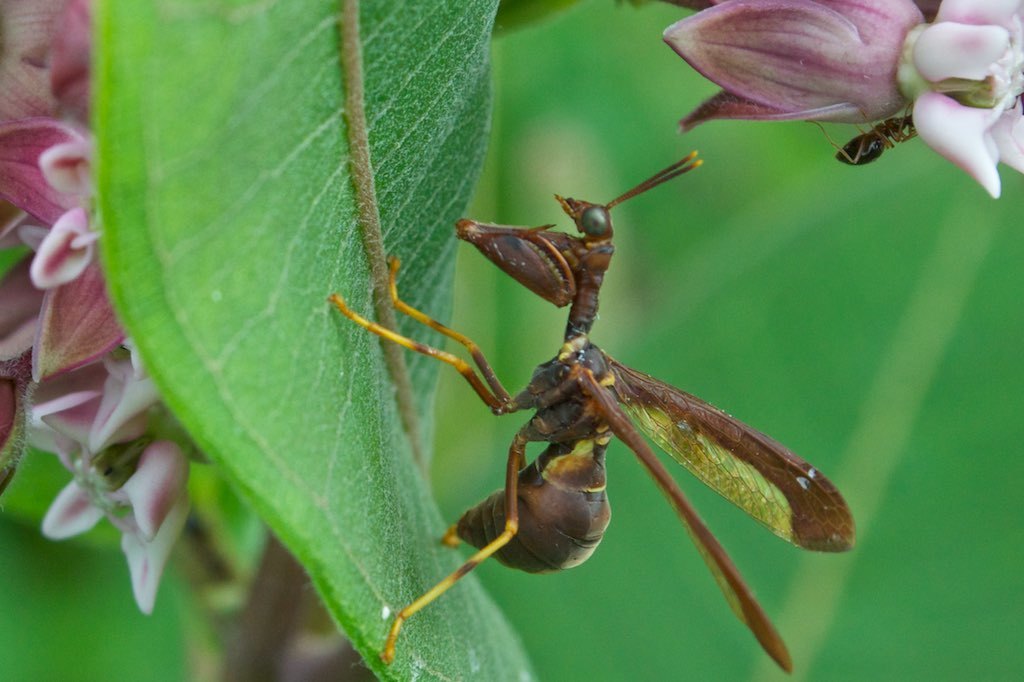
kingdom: Animalia
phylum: Arthropoda
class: Insecta
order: Neuroptera
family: Mantispidae
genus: Climaciella
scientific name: Climaciella brunnea
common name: Brown wasp mantidfly
